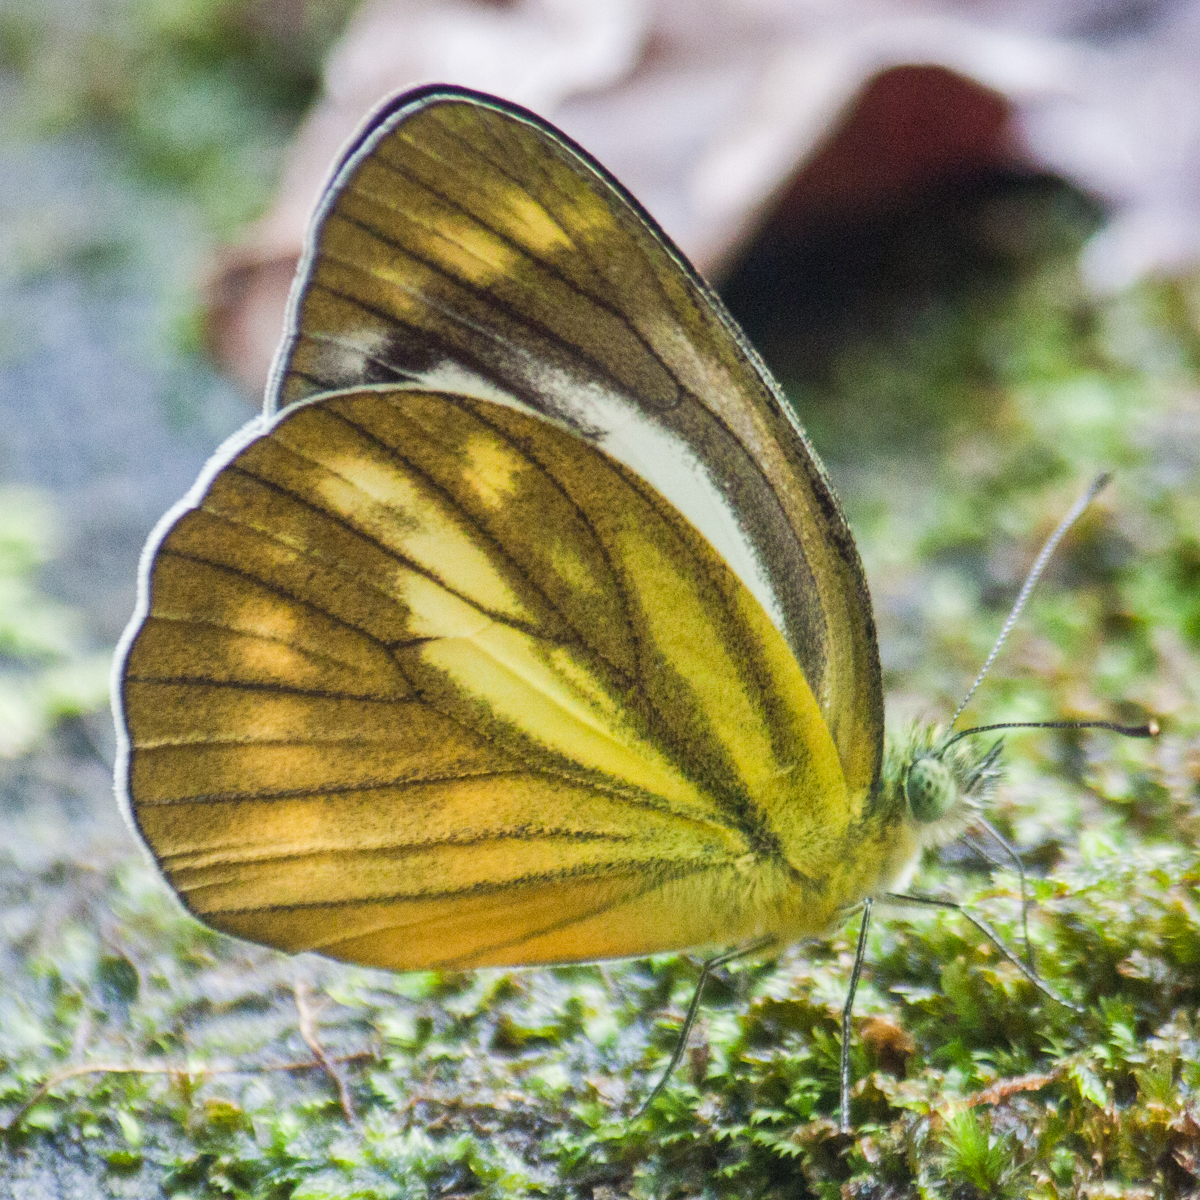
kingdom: Animalia
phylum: Arthropoda
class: Insecta
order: Lepidoptera
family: Pieridae
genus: Cepora
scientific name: Cepora nadina
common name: Lesser gull
